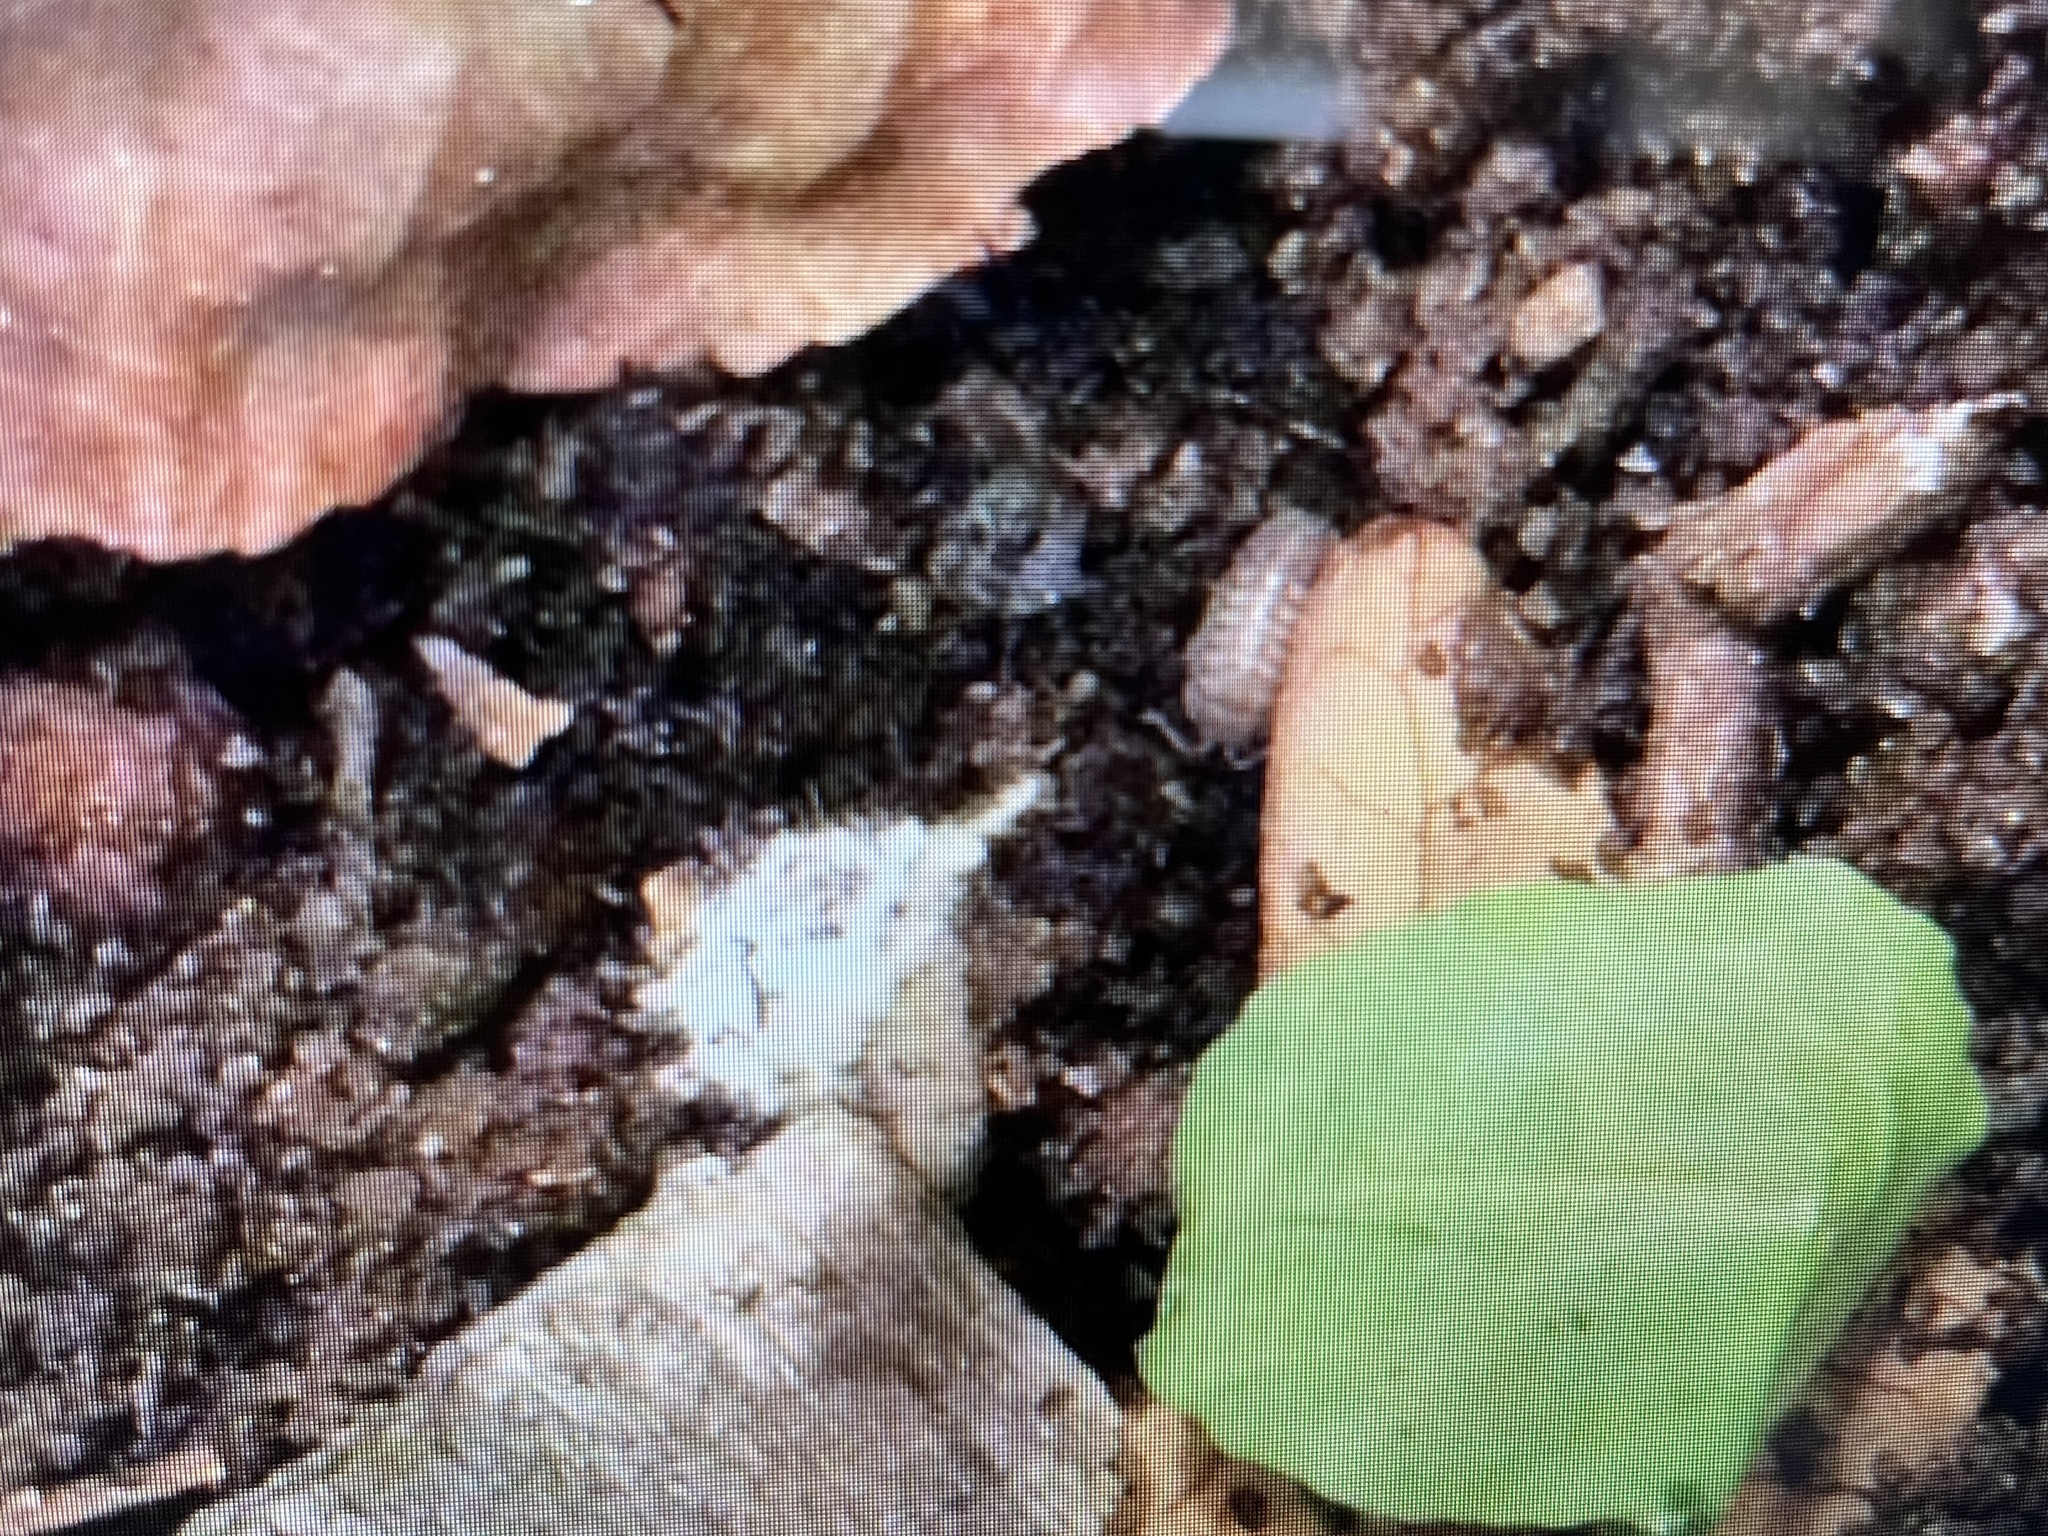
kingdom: Animalia
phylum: Arthropoda
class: Malacostraca
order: Isopoda
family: Armadillidiidae
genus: Armadillidium
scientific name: Armadillidium nasatum
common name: Isopod
